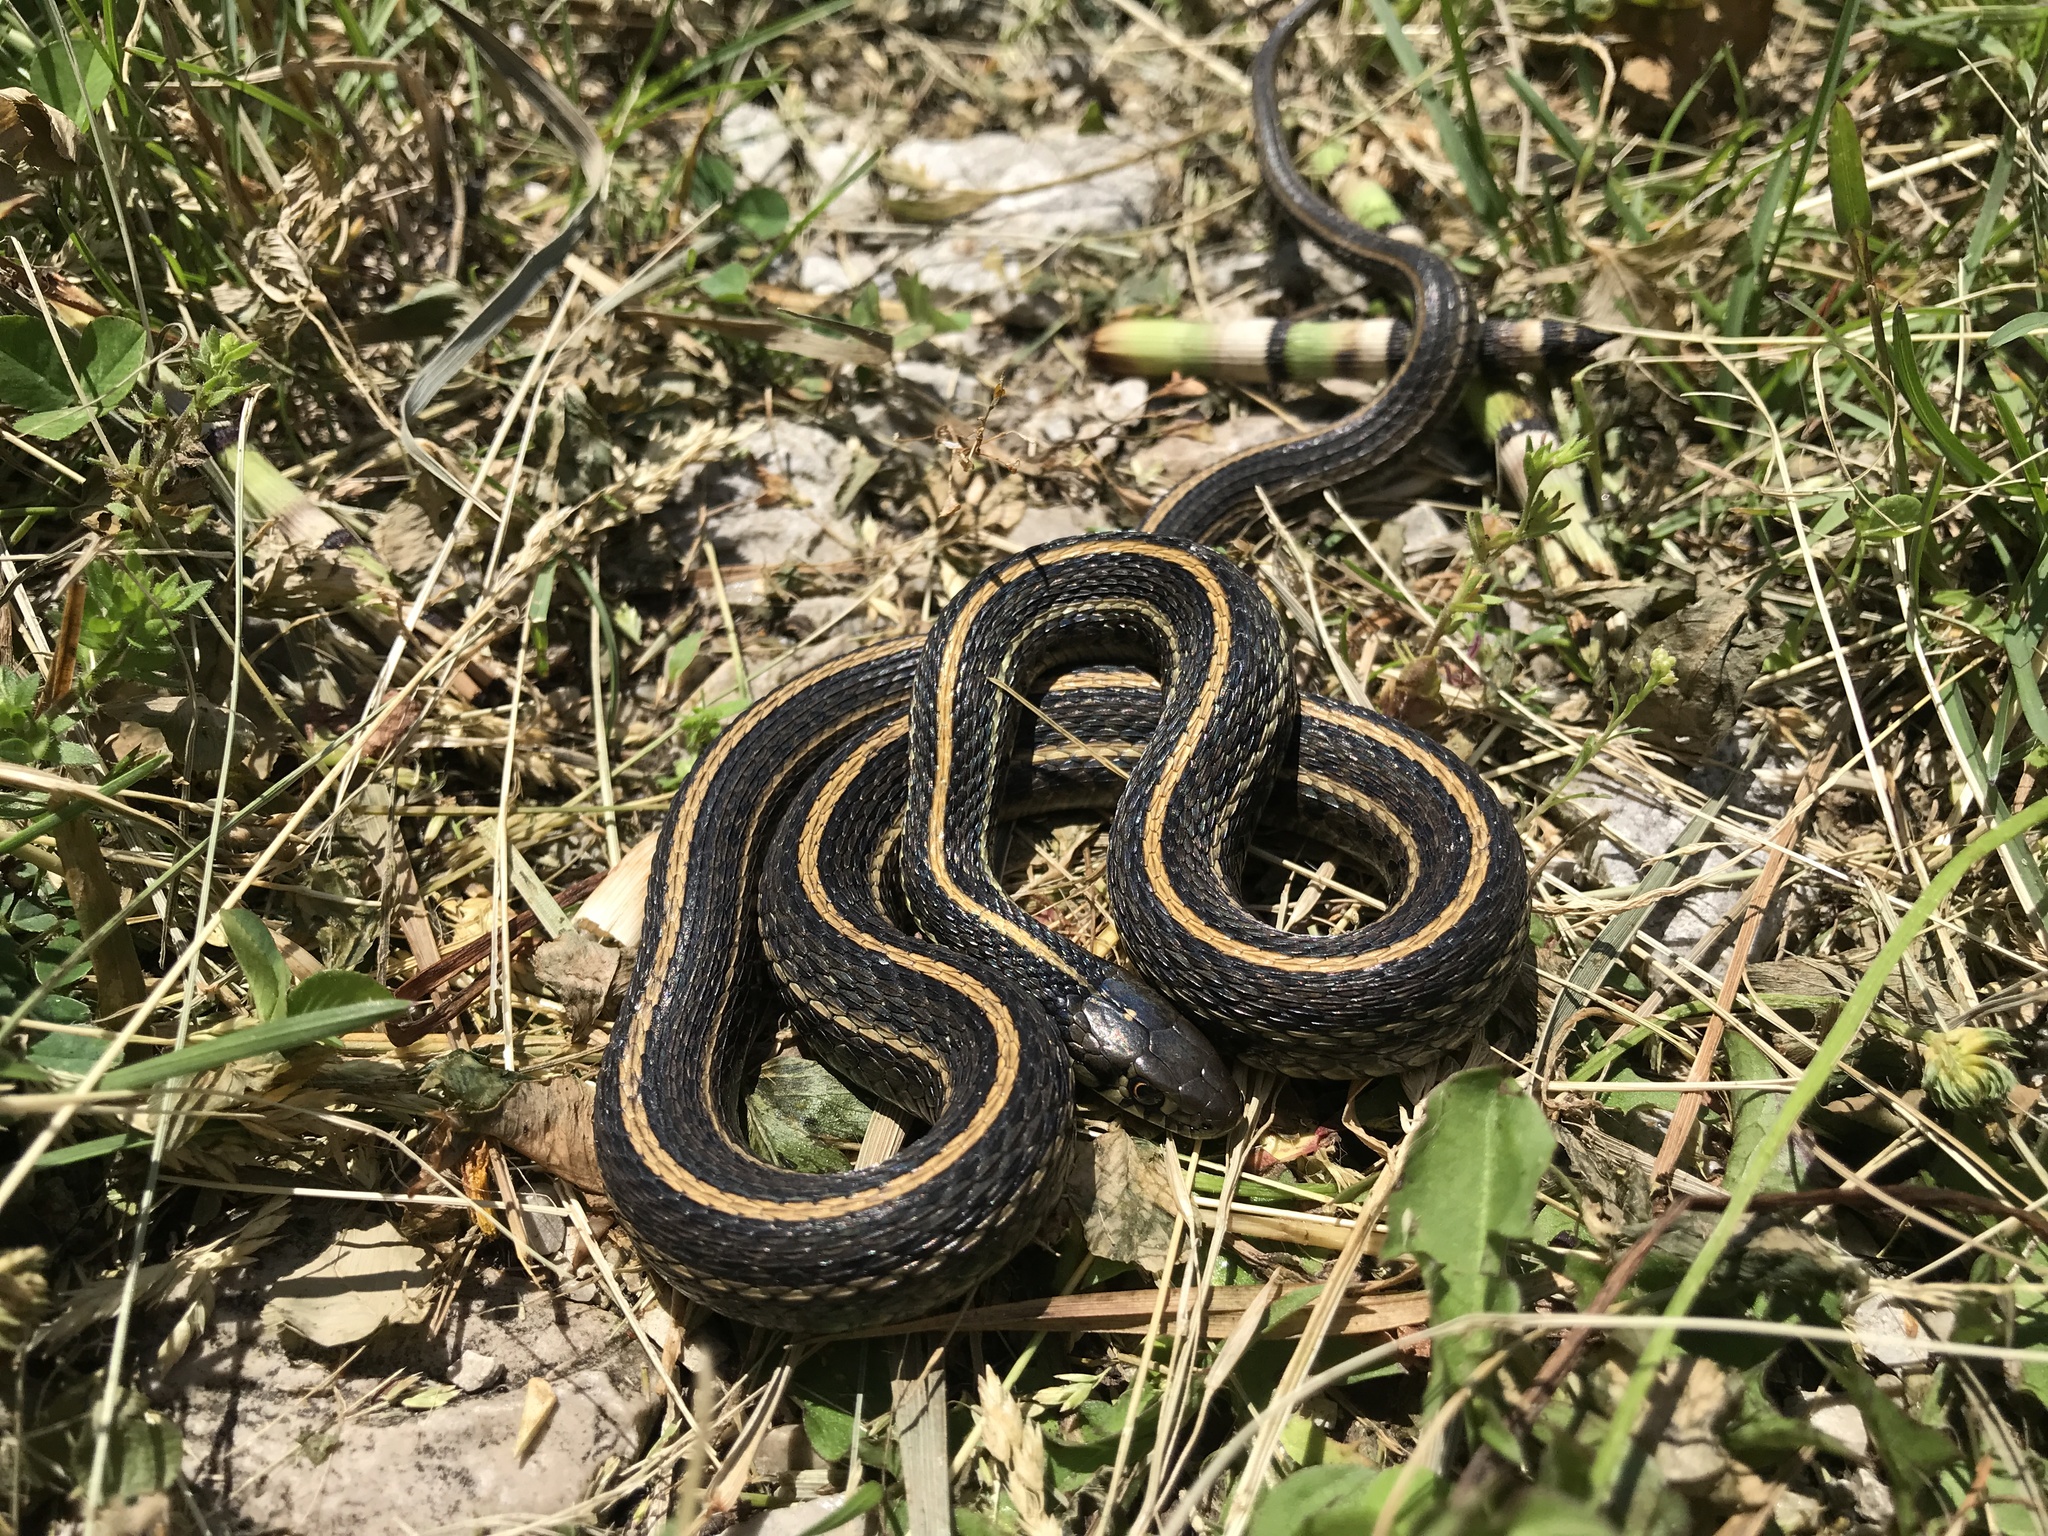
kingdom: Animalia
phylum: Chordata
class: Squamata
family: Colubridae
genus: Thamnophis
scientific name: Thamnophis radix
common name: Plains garter snake
